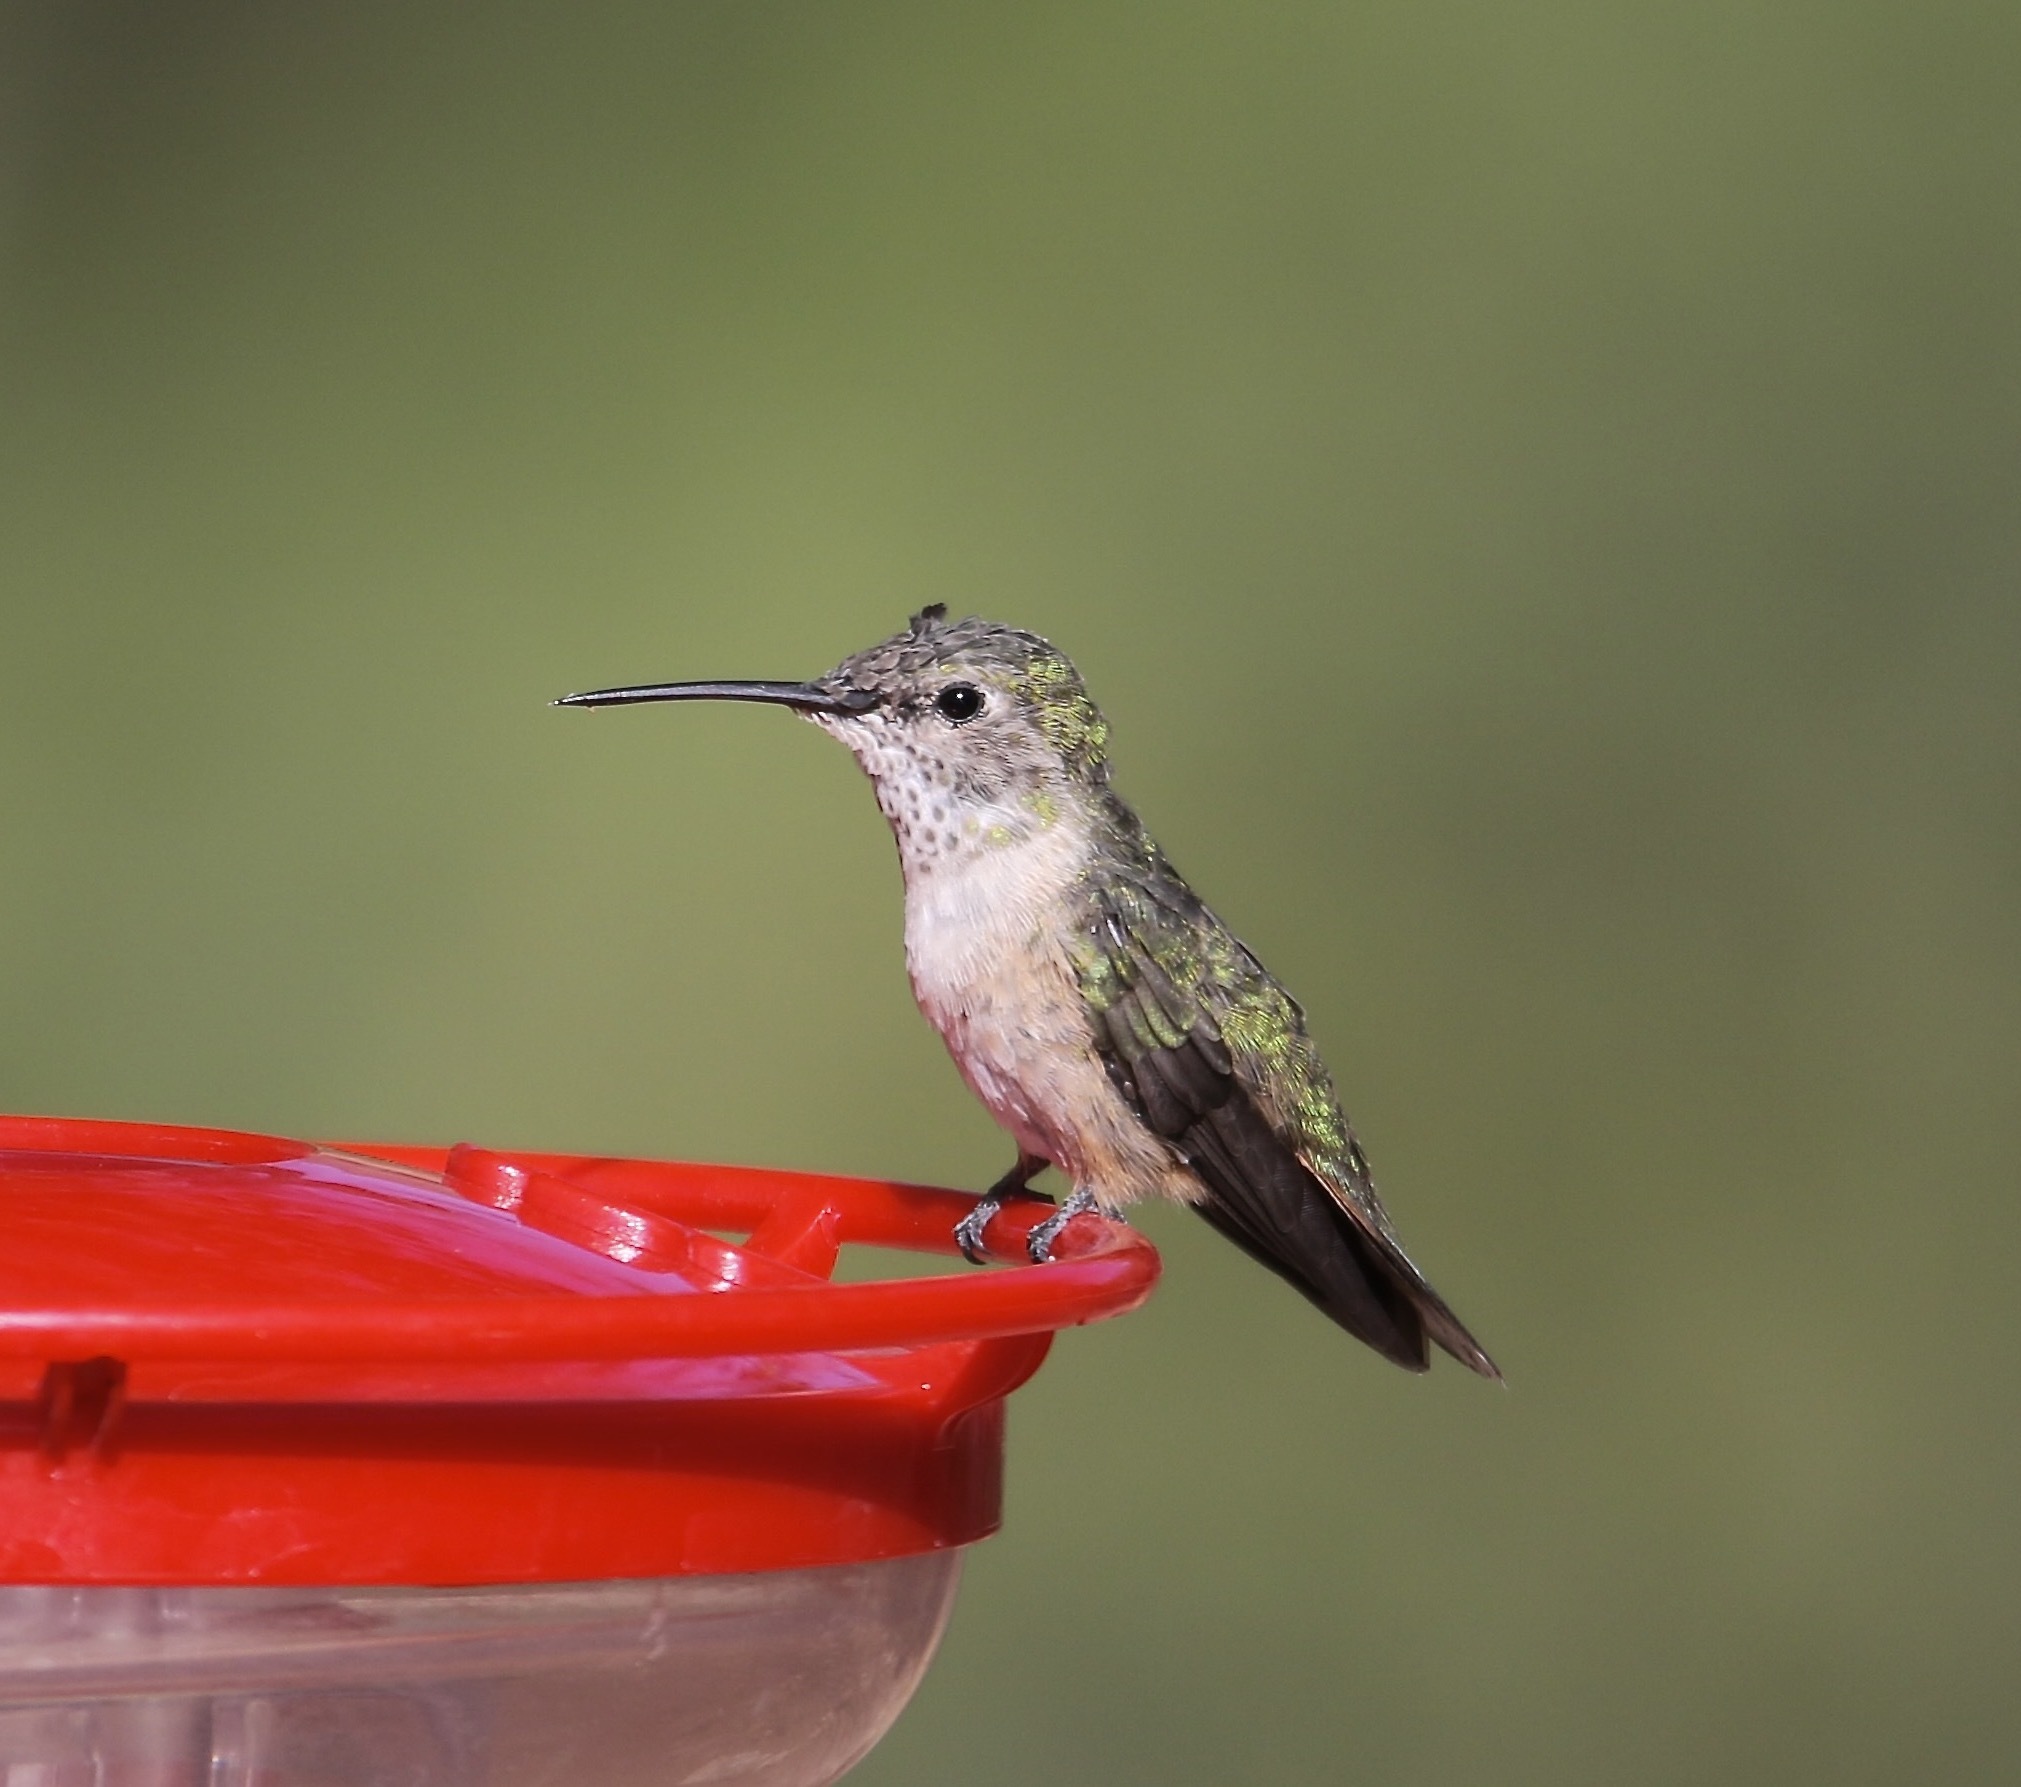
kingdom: Animalia
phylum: Chordata
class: Aves
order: Apodiformes
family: Trochilidae
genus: Selasphorus
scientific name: Selasphorus platycercus
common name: Broad-tailed hummingbird
